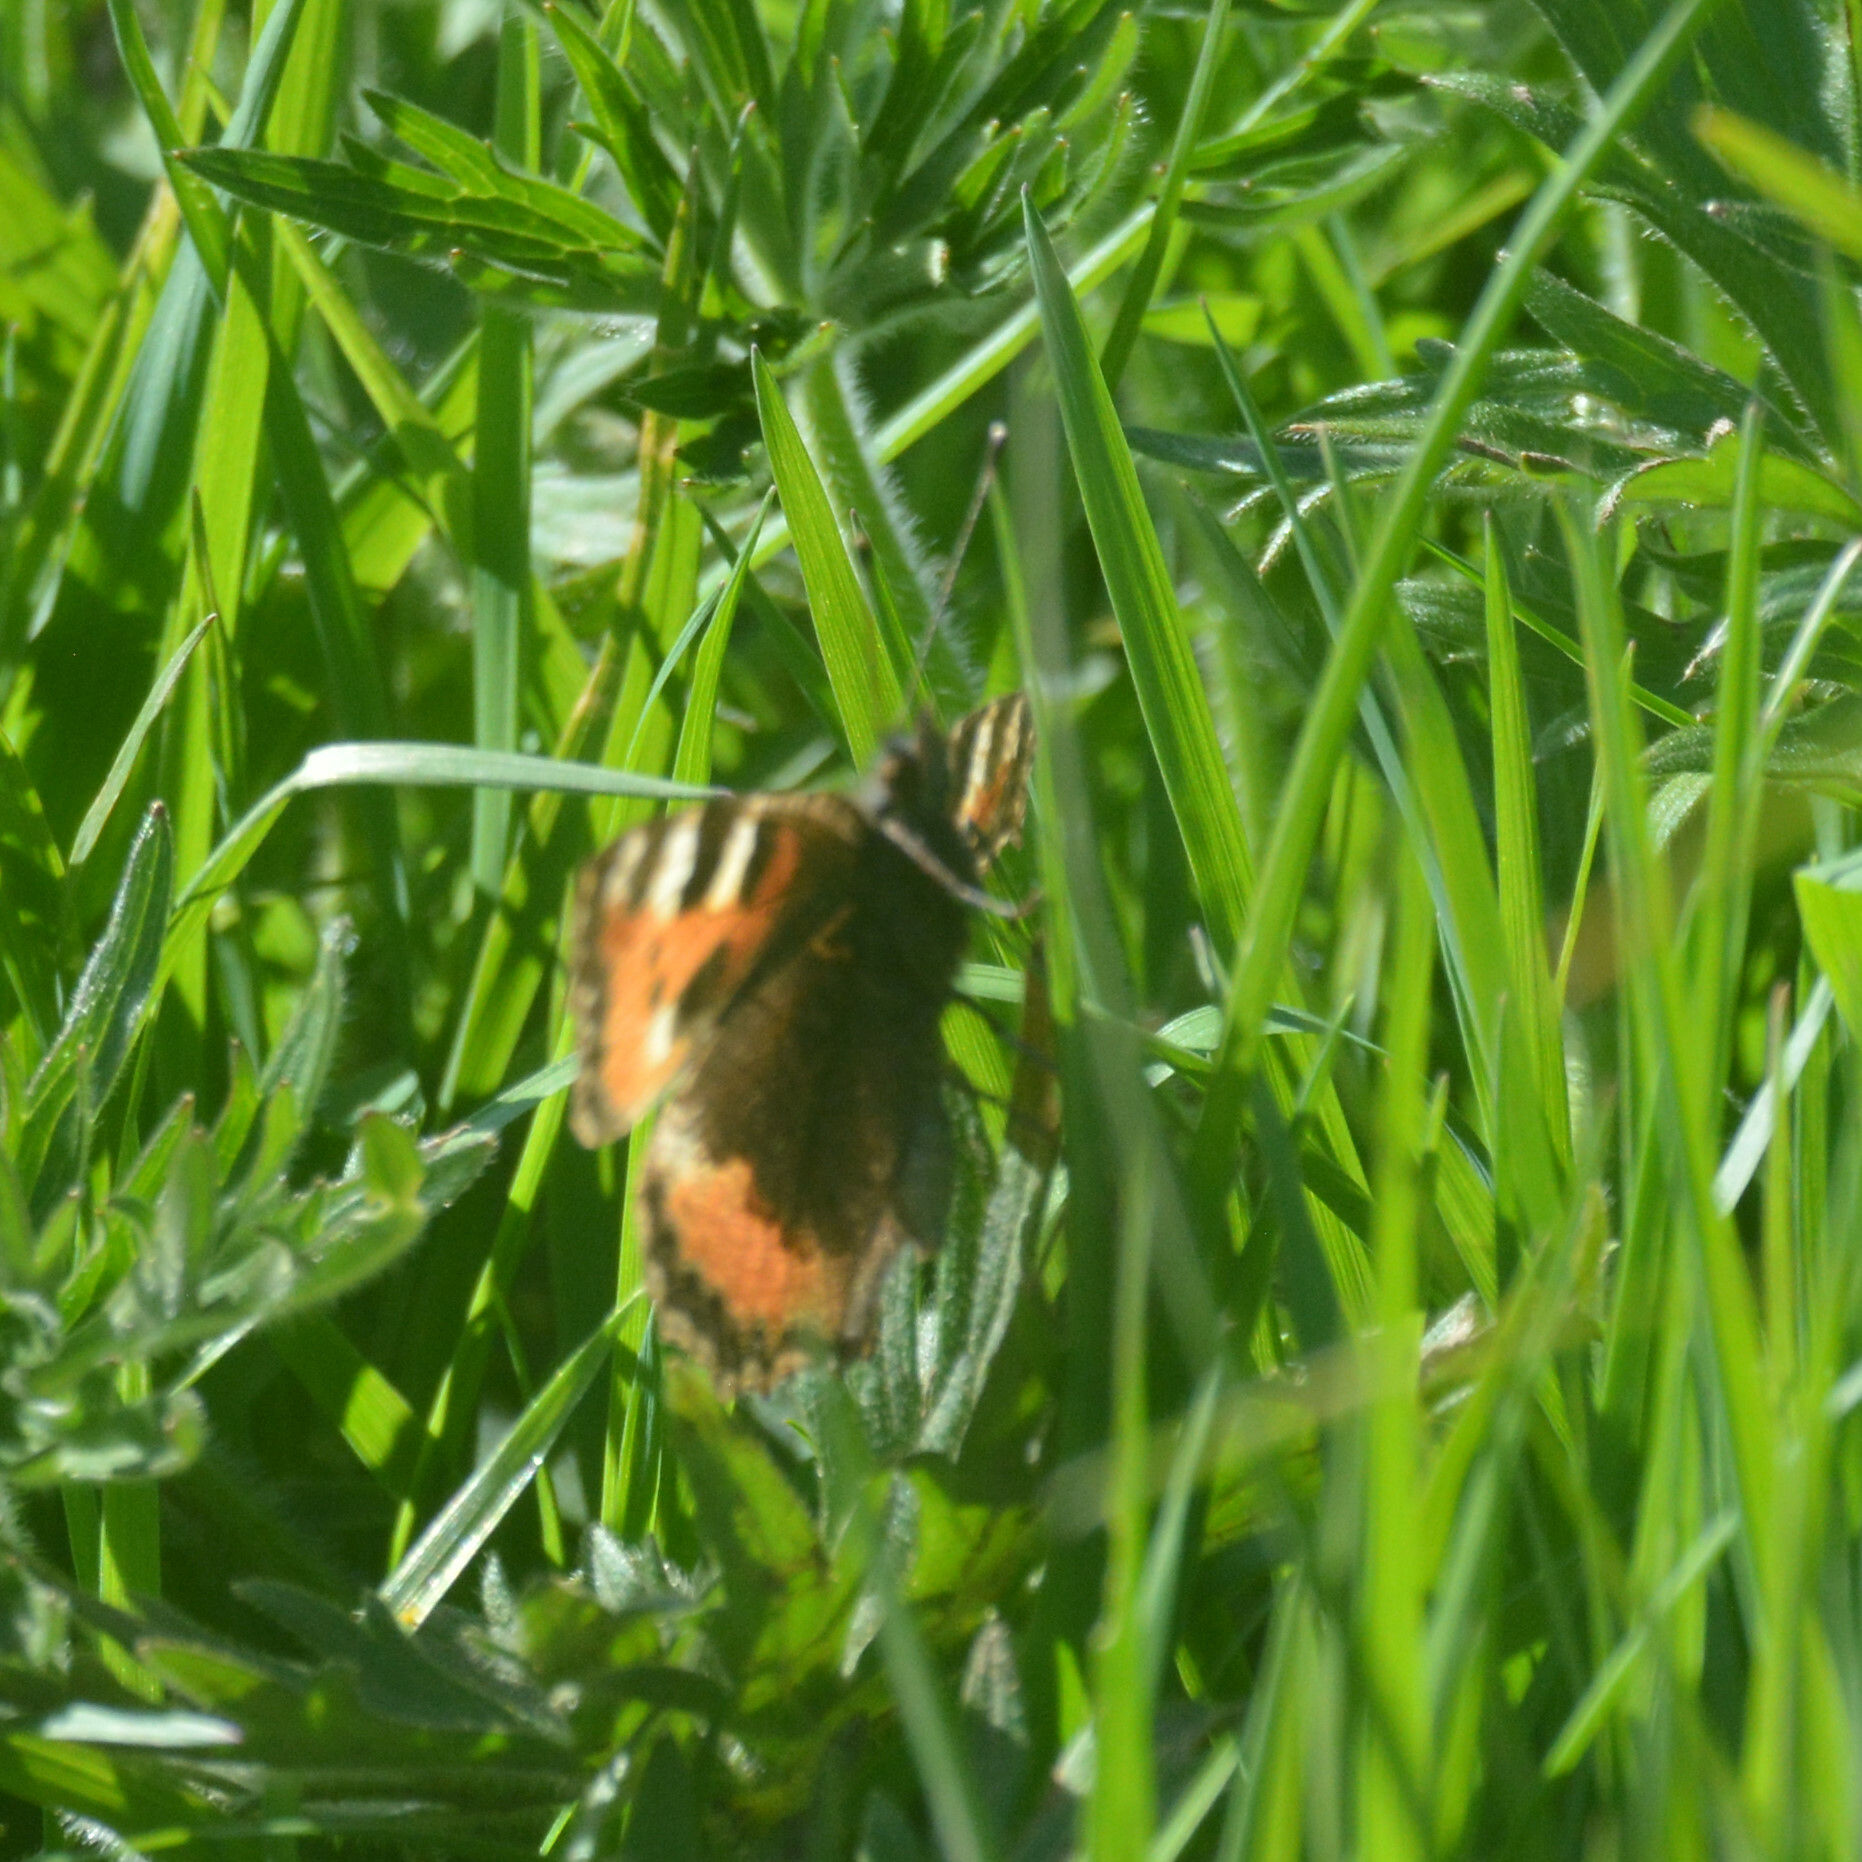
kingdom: Animalia
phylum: Arthropoda
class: Insecta
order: Lepidoptera
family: Nymphalidae
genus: Aglais
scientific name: Aglais urticae
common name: Small tortoiseshell
